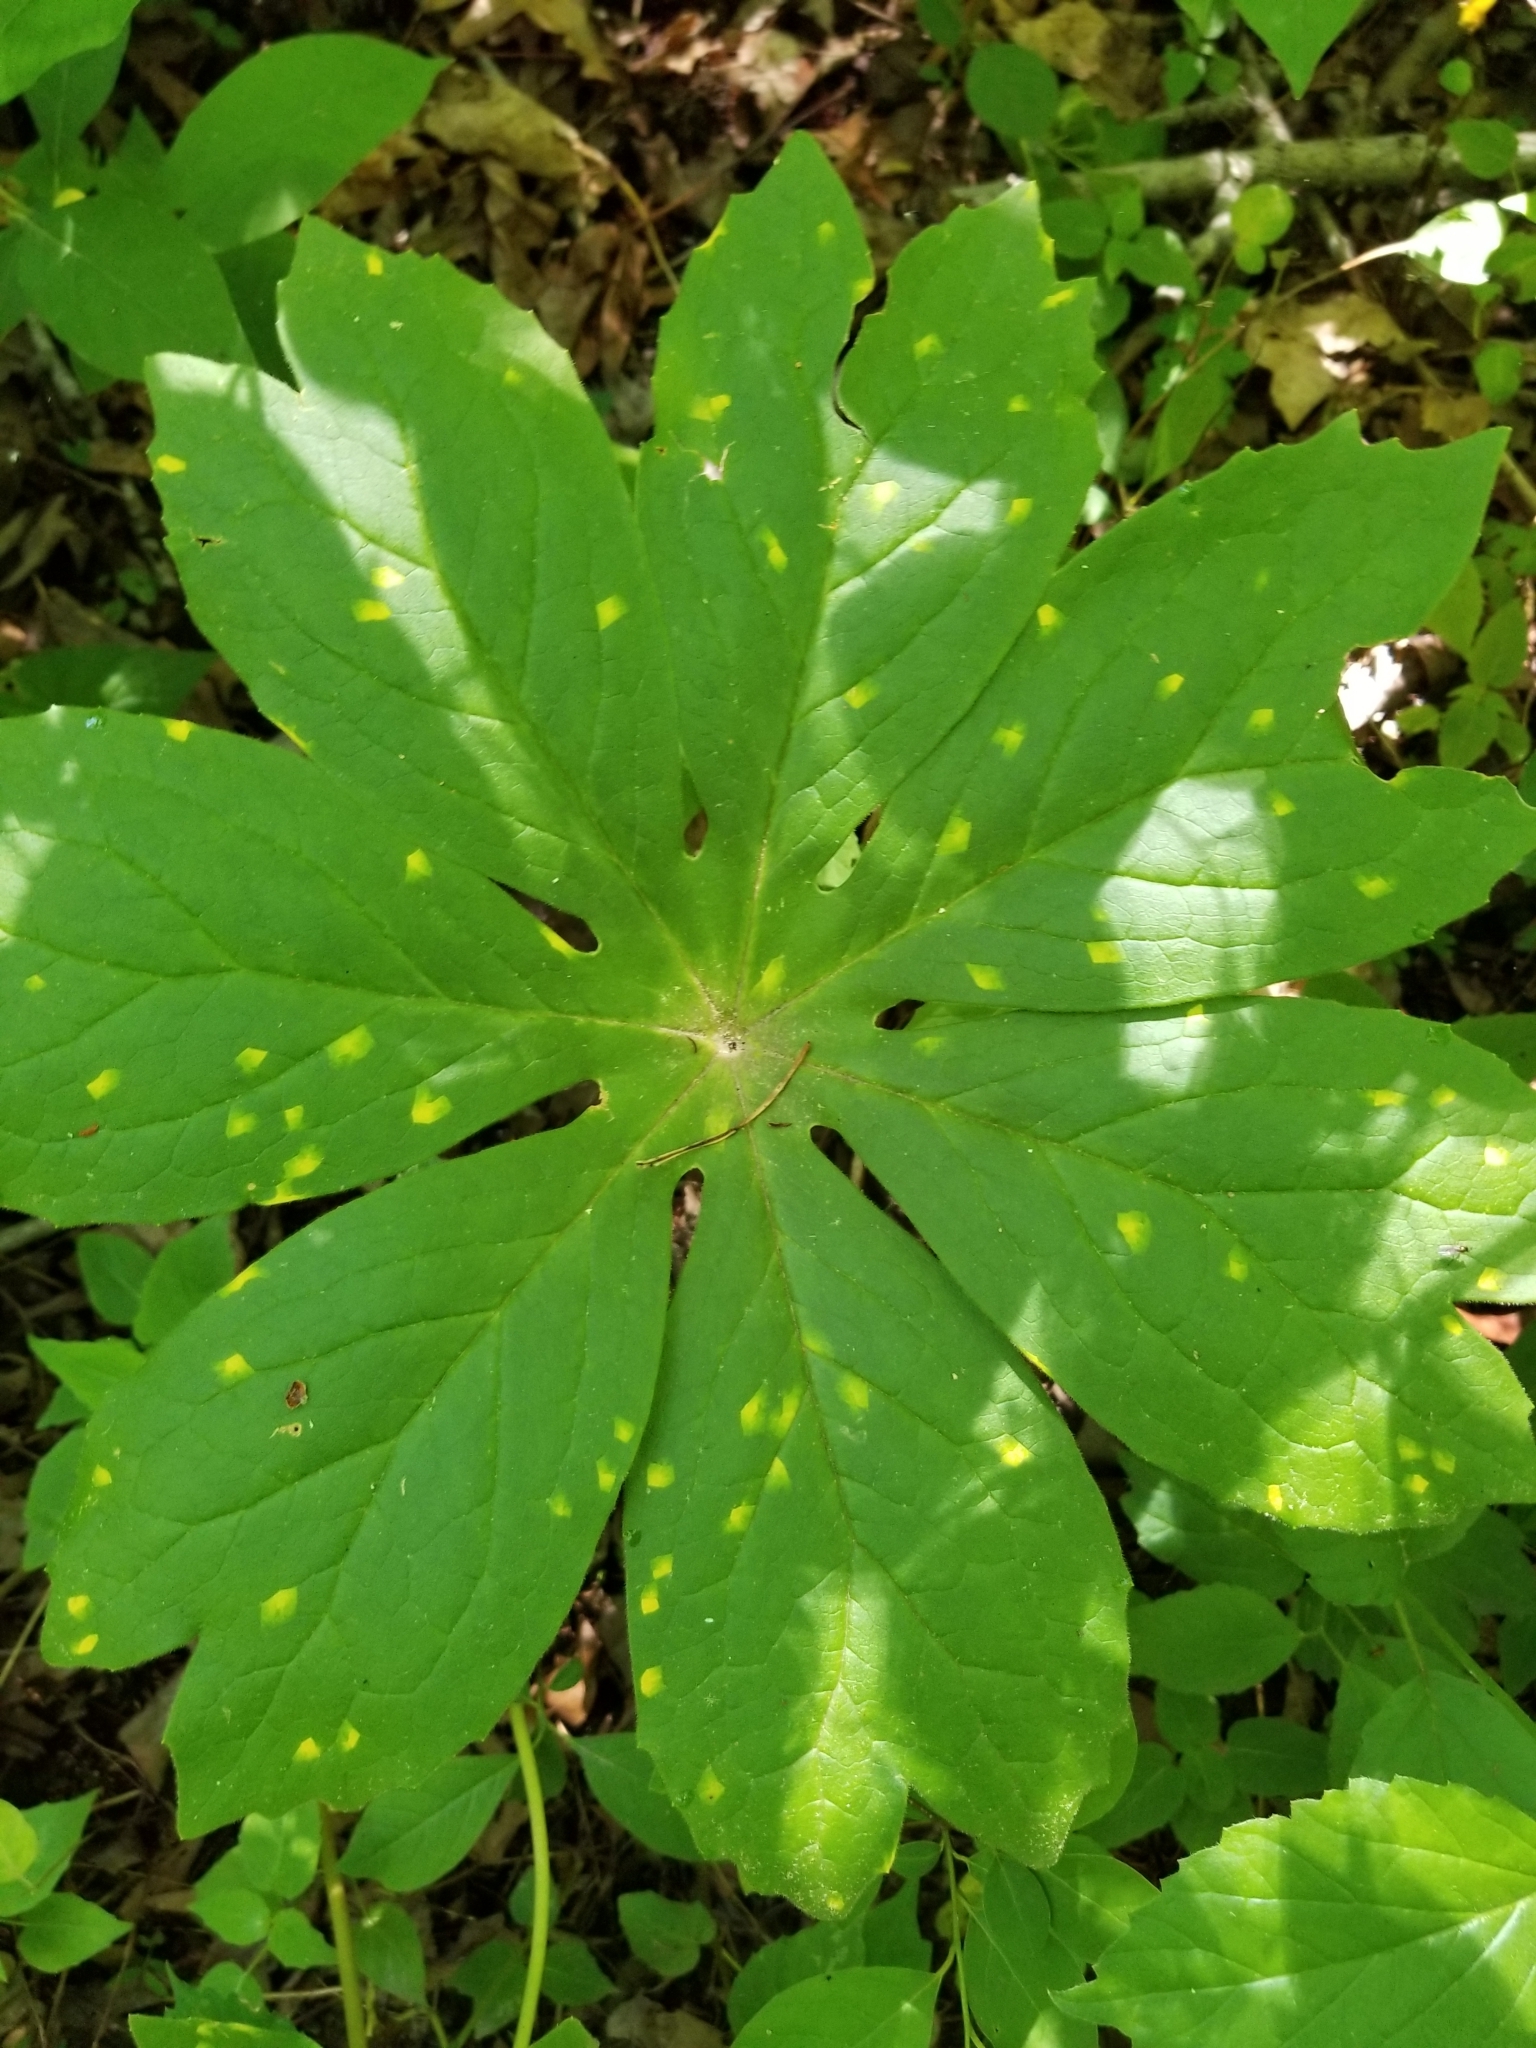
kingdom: Plantae
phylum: Tracheophyta
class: Magnoliopsida
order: Ranunculales
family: Berberidaceae
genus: Podophyllum
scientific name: Podophyllum peltatum
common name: Wild mandrake
